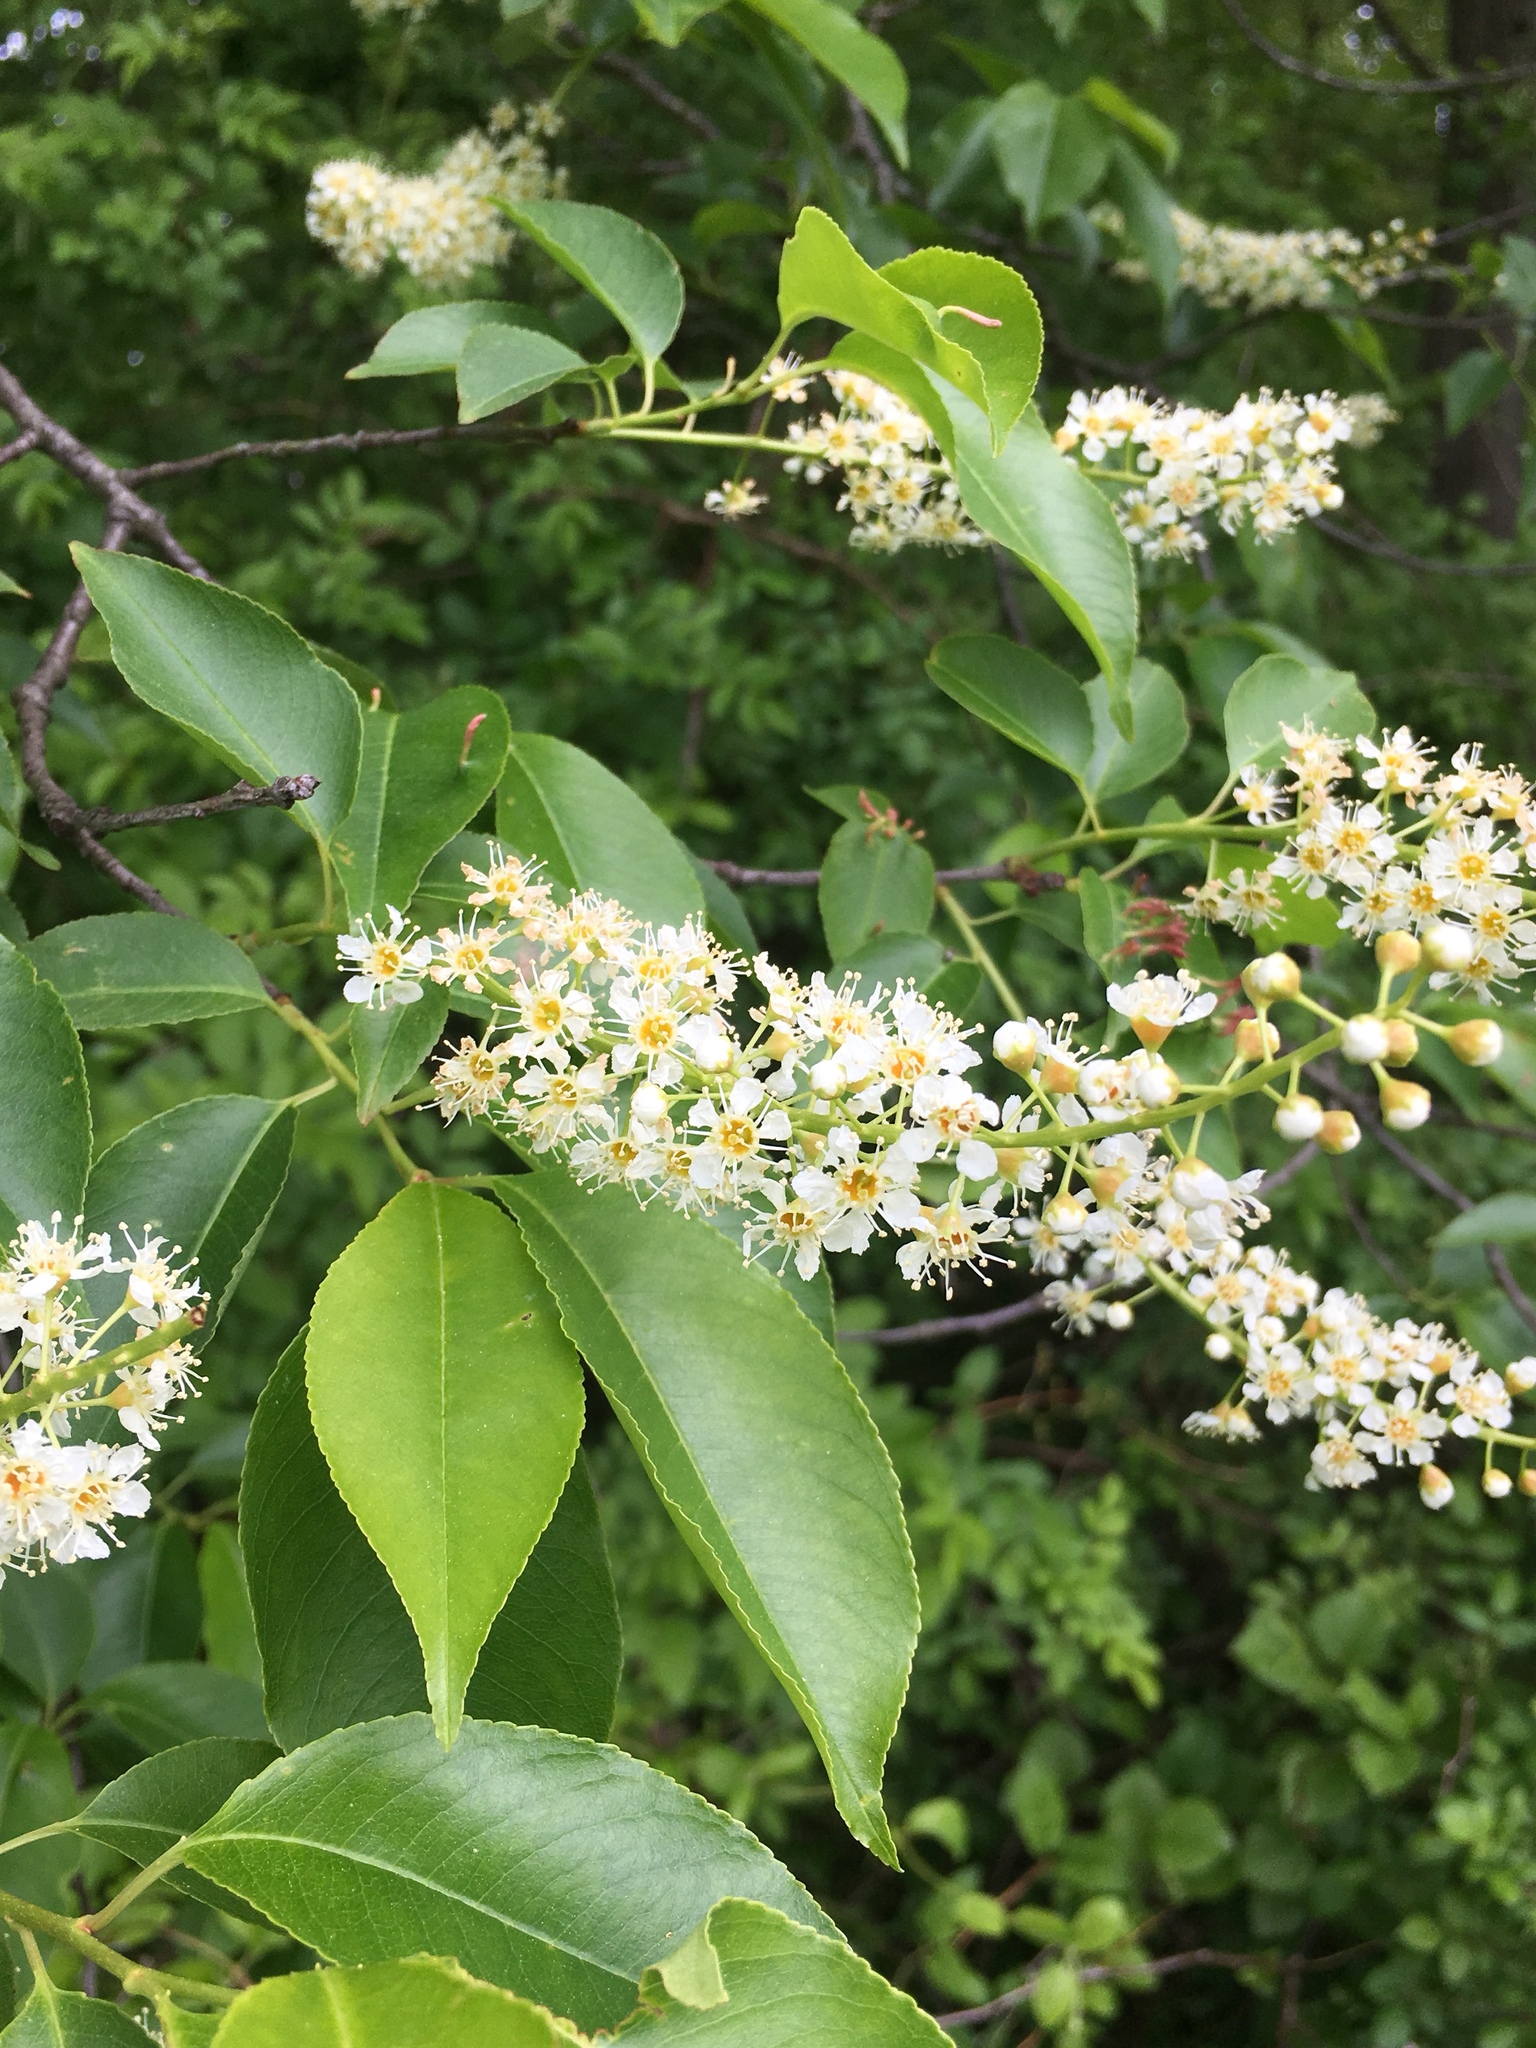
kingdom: Plantae
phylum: Tracheophyta
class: Magnoliopsida
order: Rosales
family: Rosaceae
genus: Prunus
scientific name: Prunus serotina
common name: Black cherry
